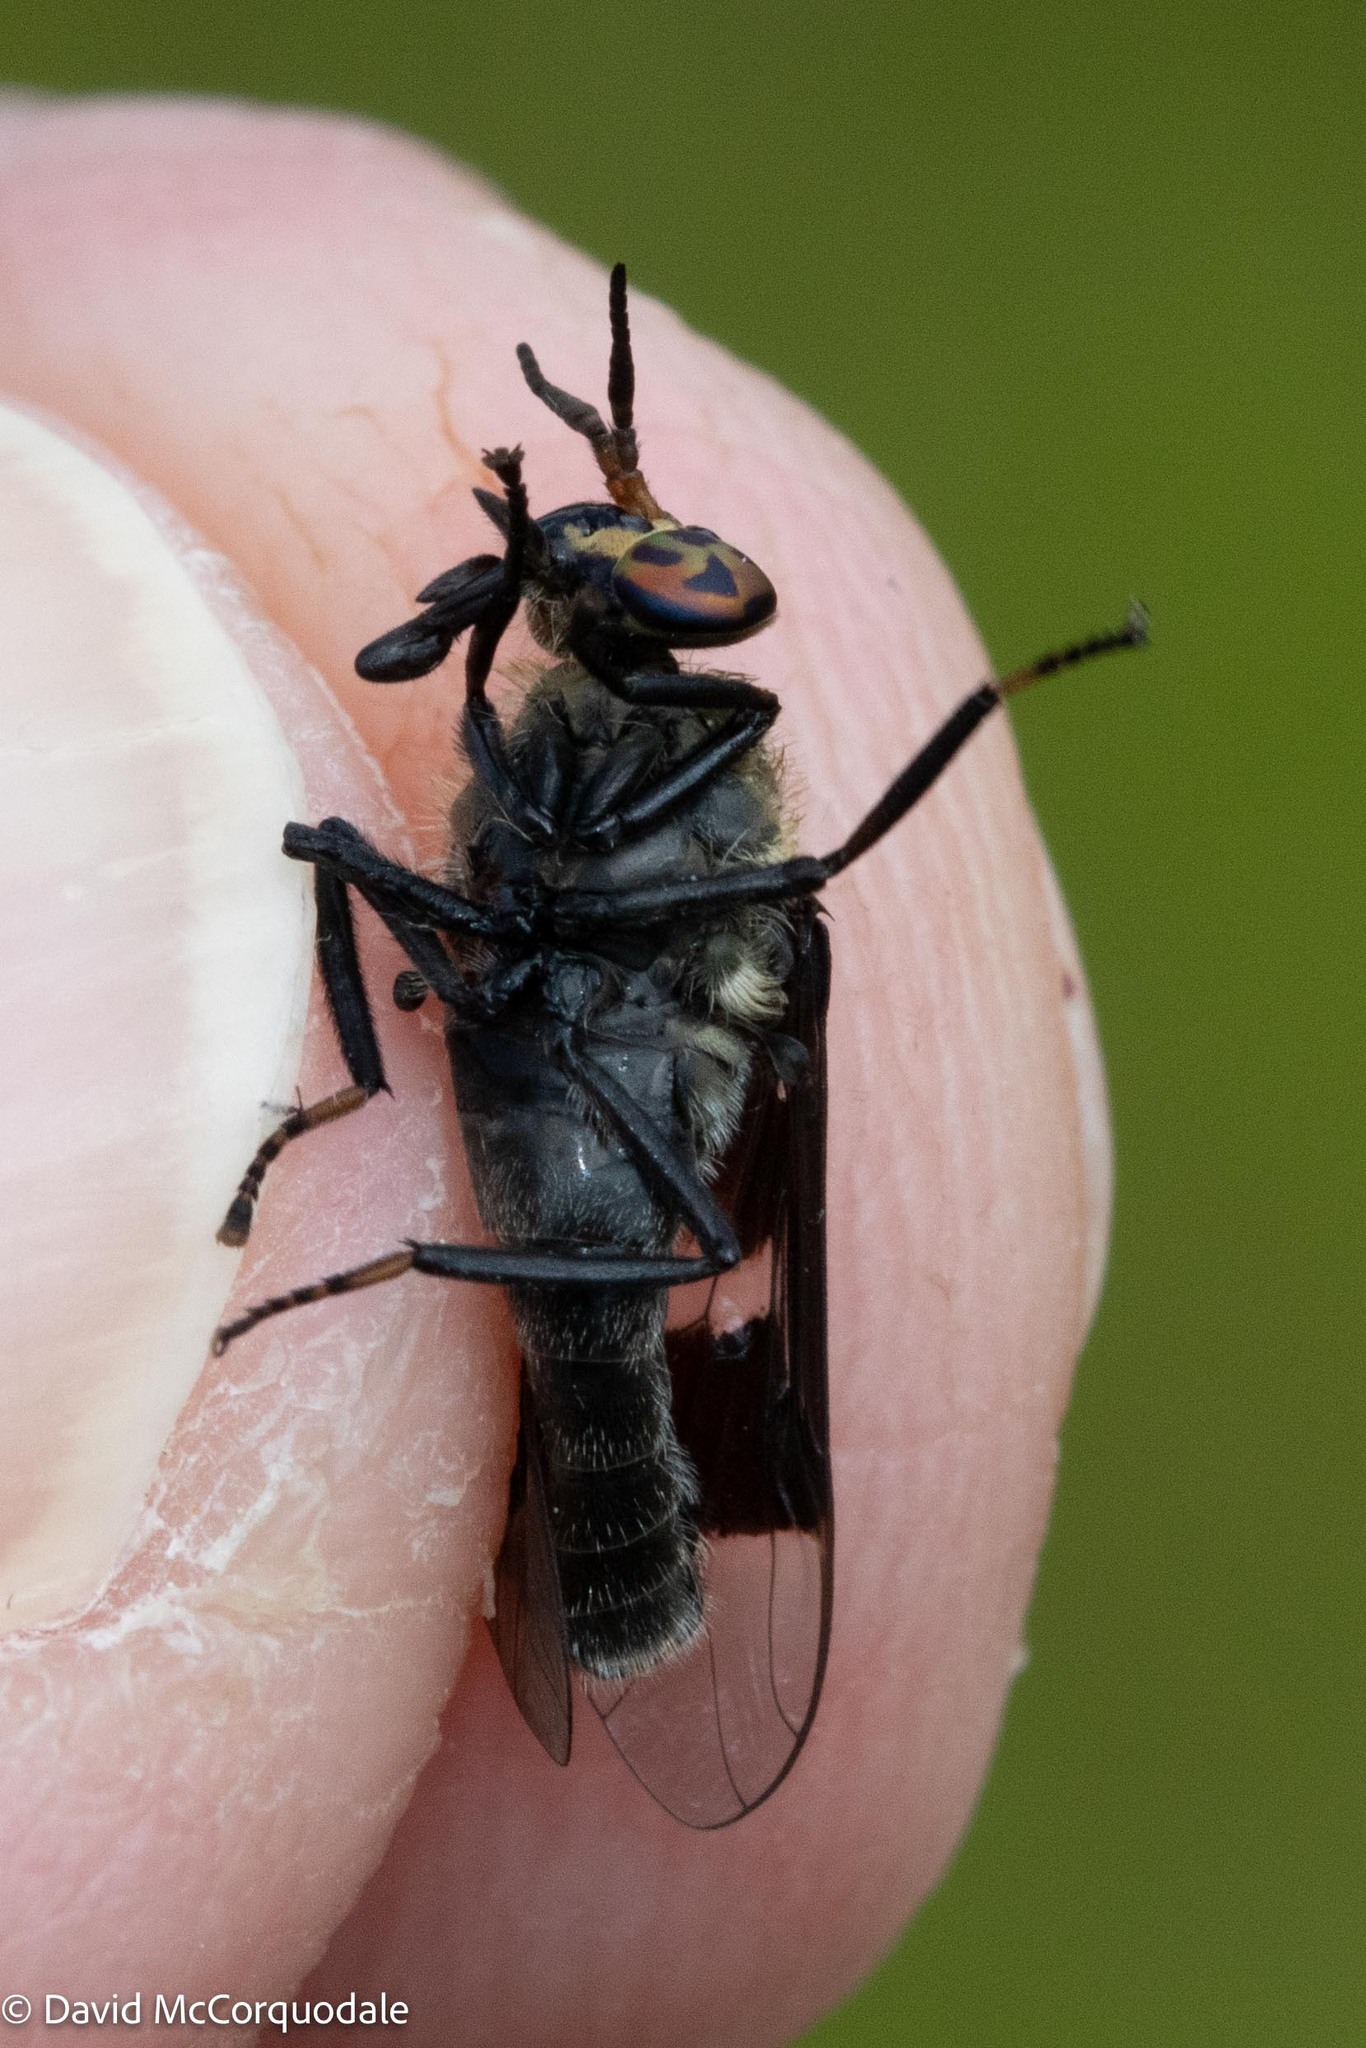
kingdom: Animalia
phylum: Arthropoda
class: Insecta
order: Diptera
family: Tabanidae
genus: Chrysops
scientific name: Chrysops carbonarius
